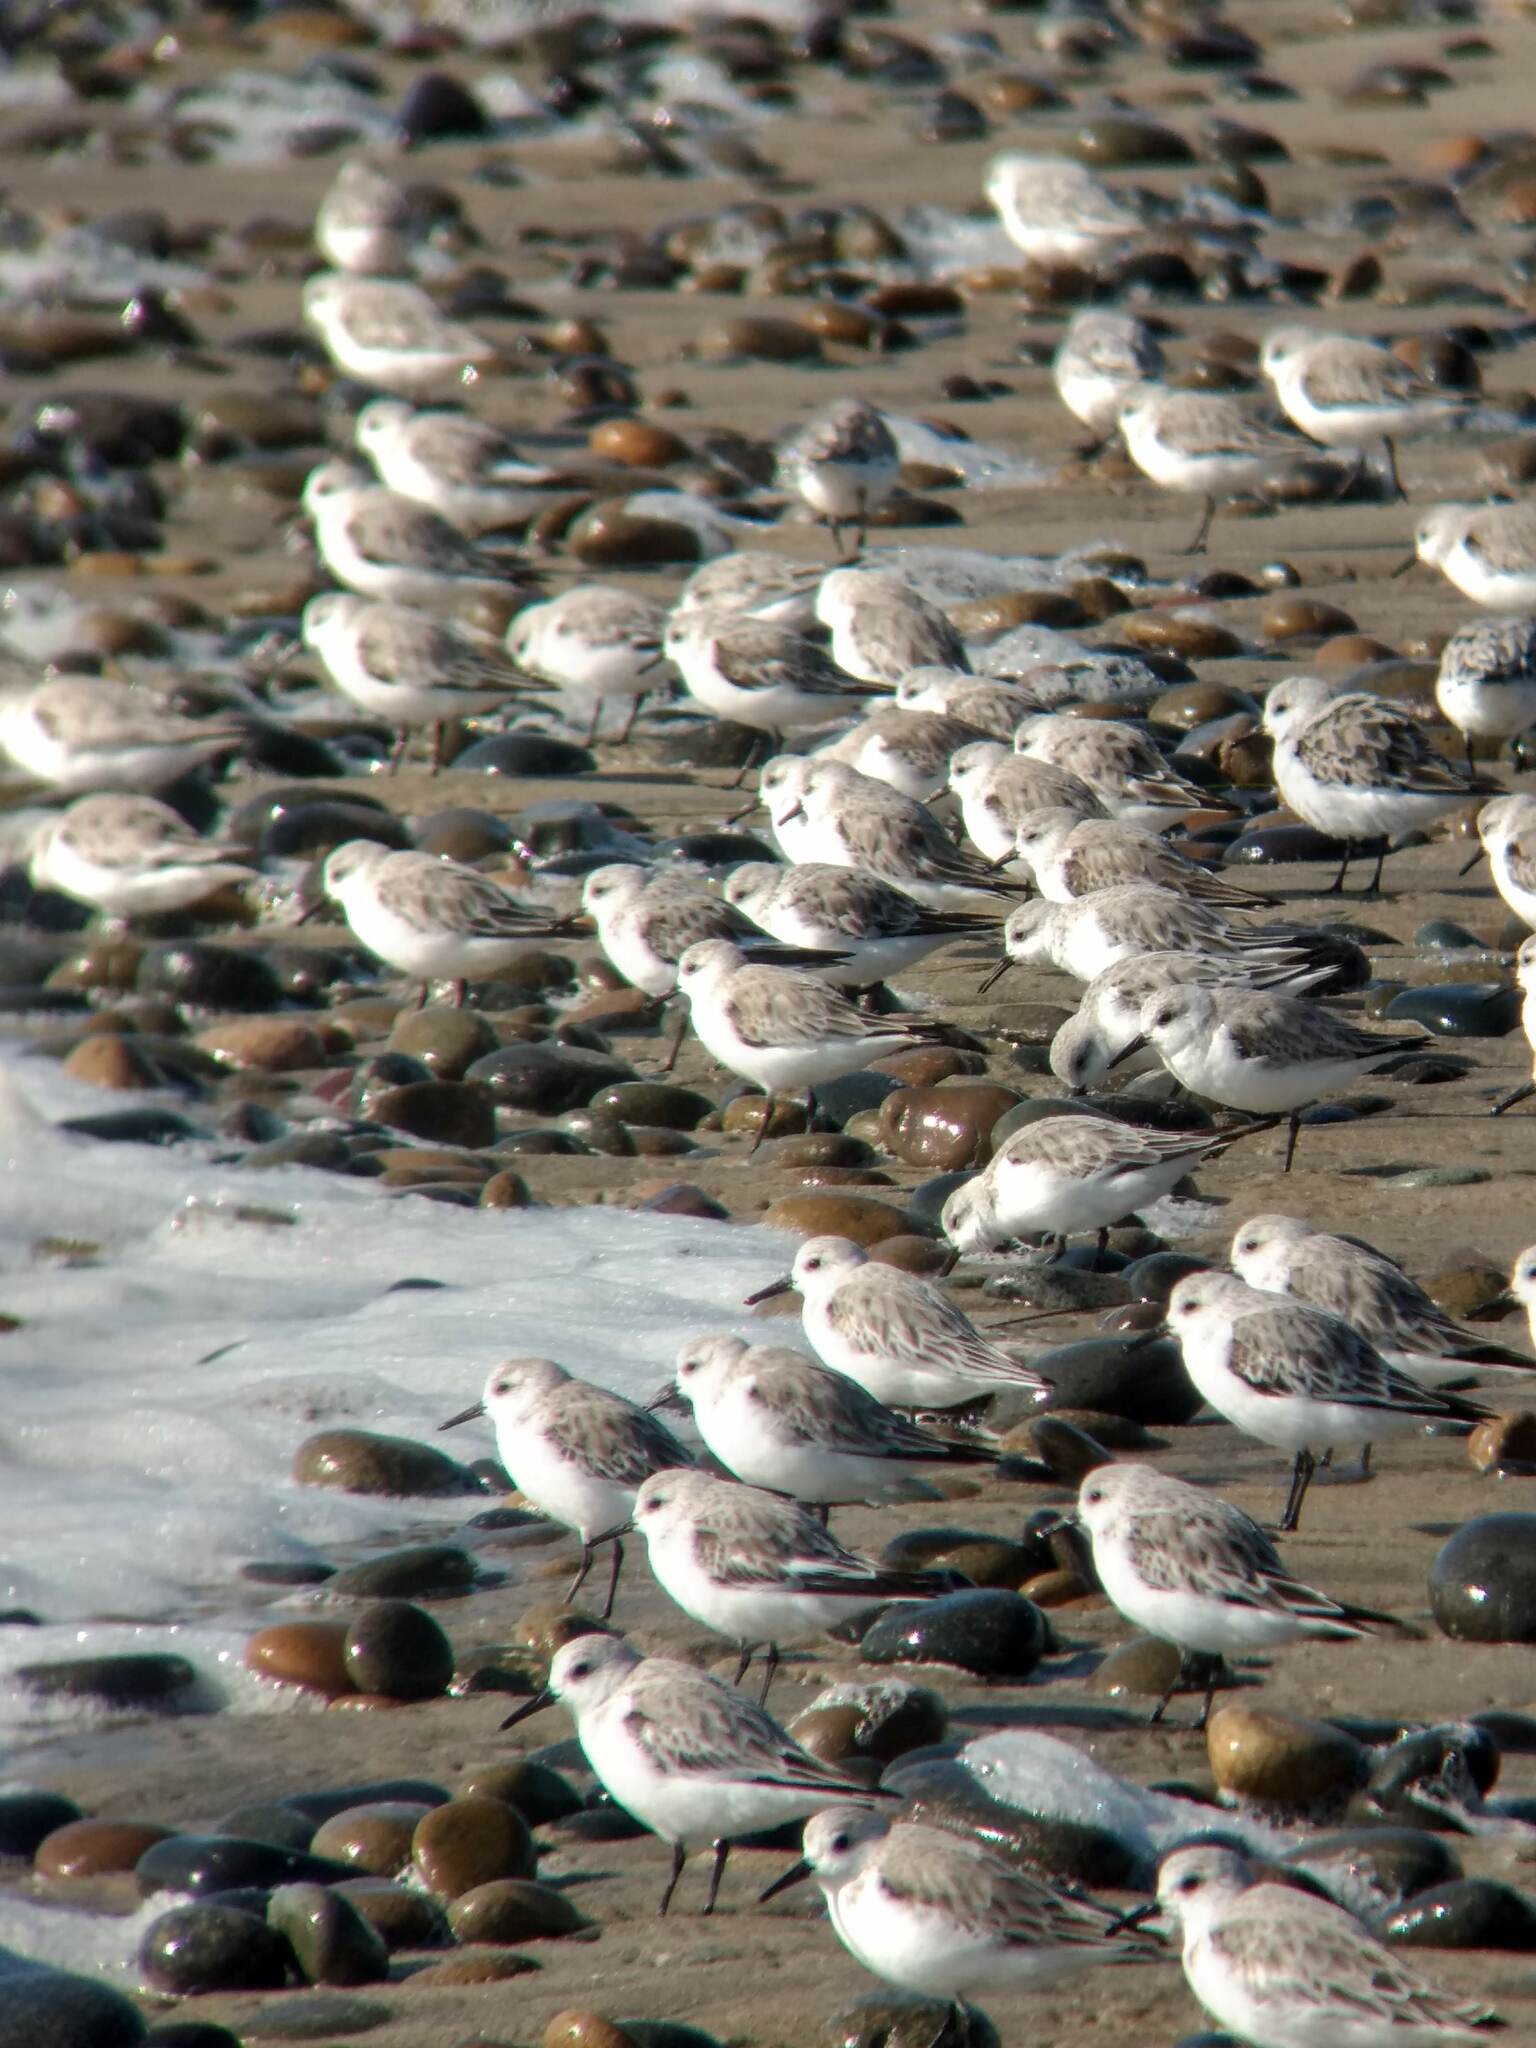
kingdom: Animalia
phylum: Chordata
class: Aves
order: Charadriiformes
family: Scolopacidae
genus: Calidris
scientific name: Calidris alba
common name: Sanderling
